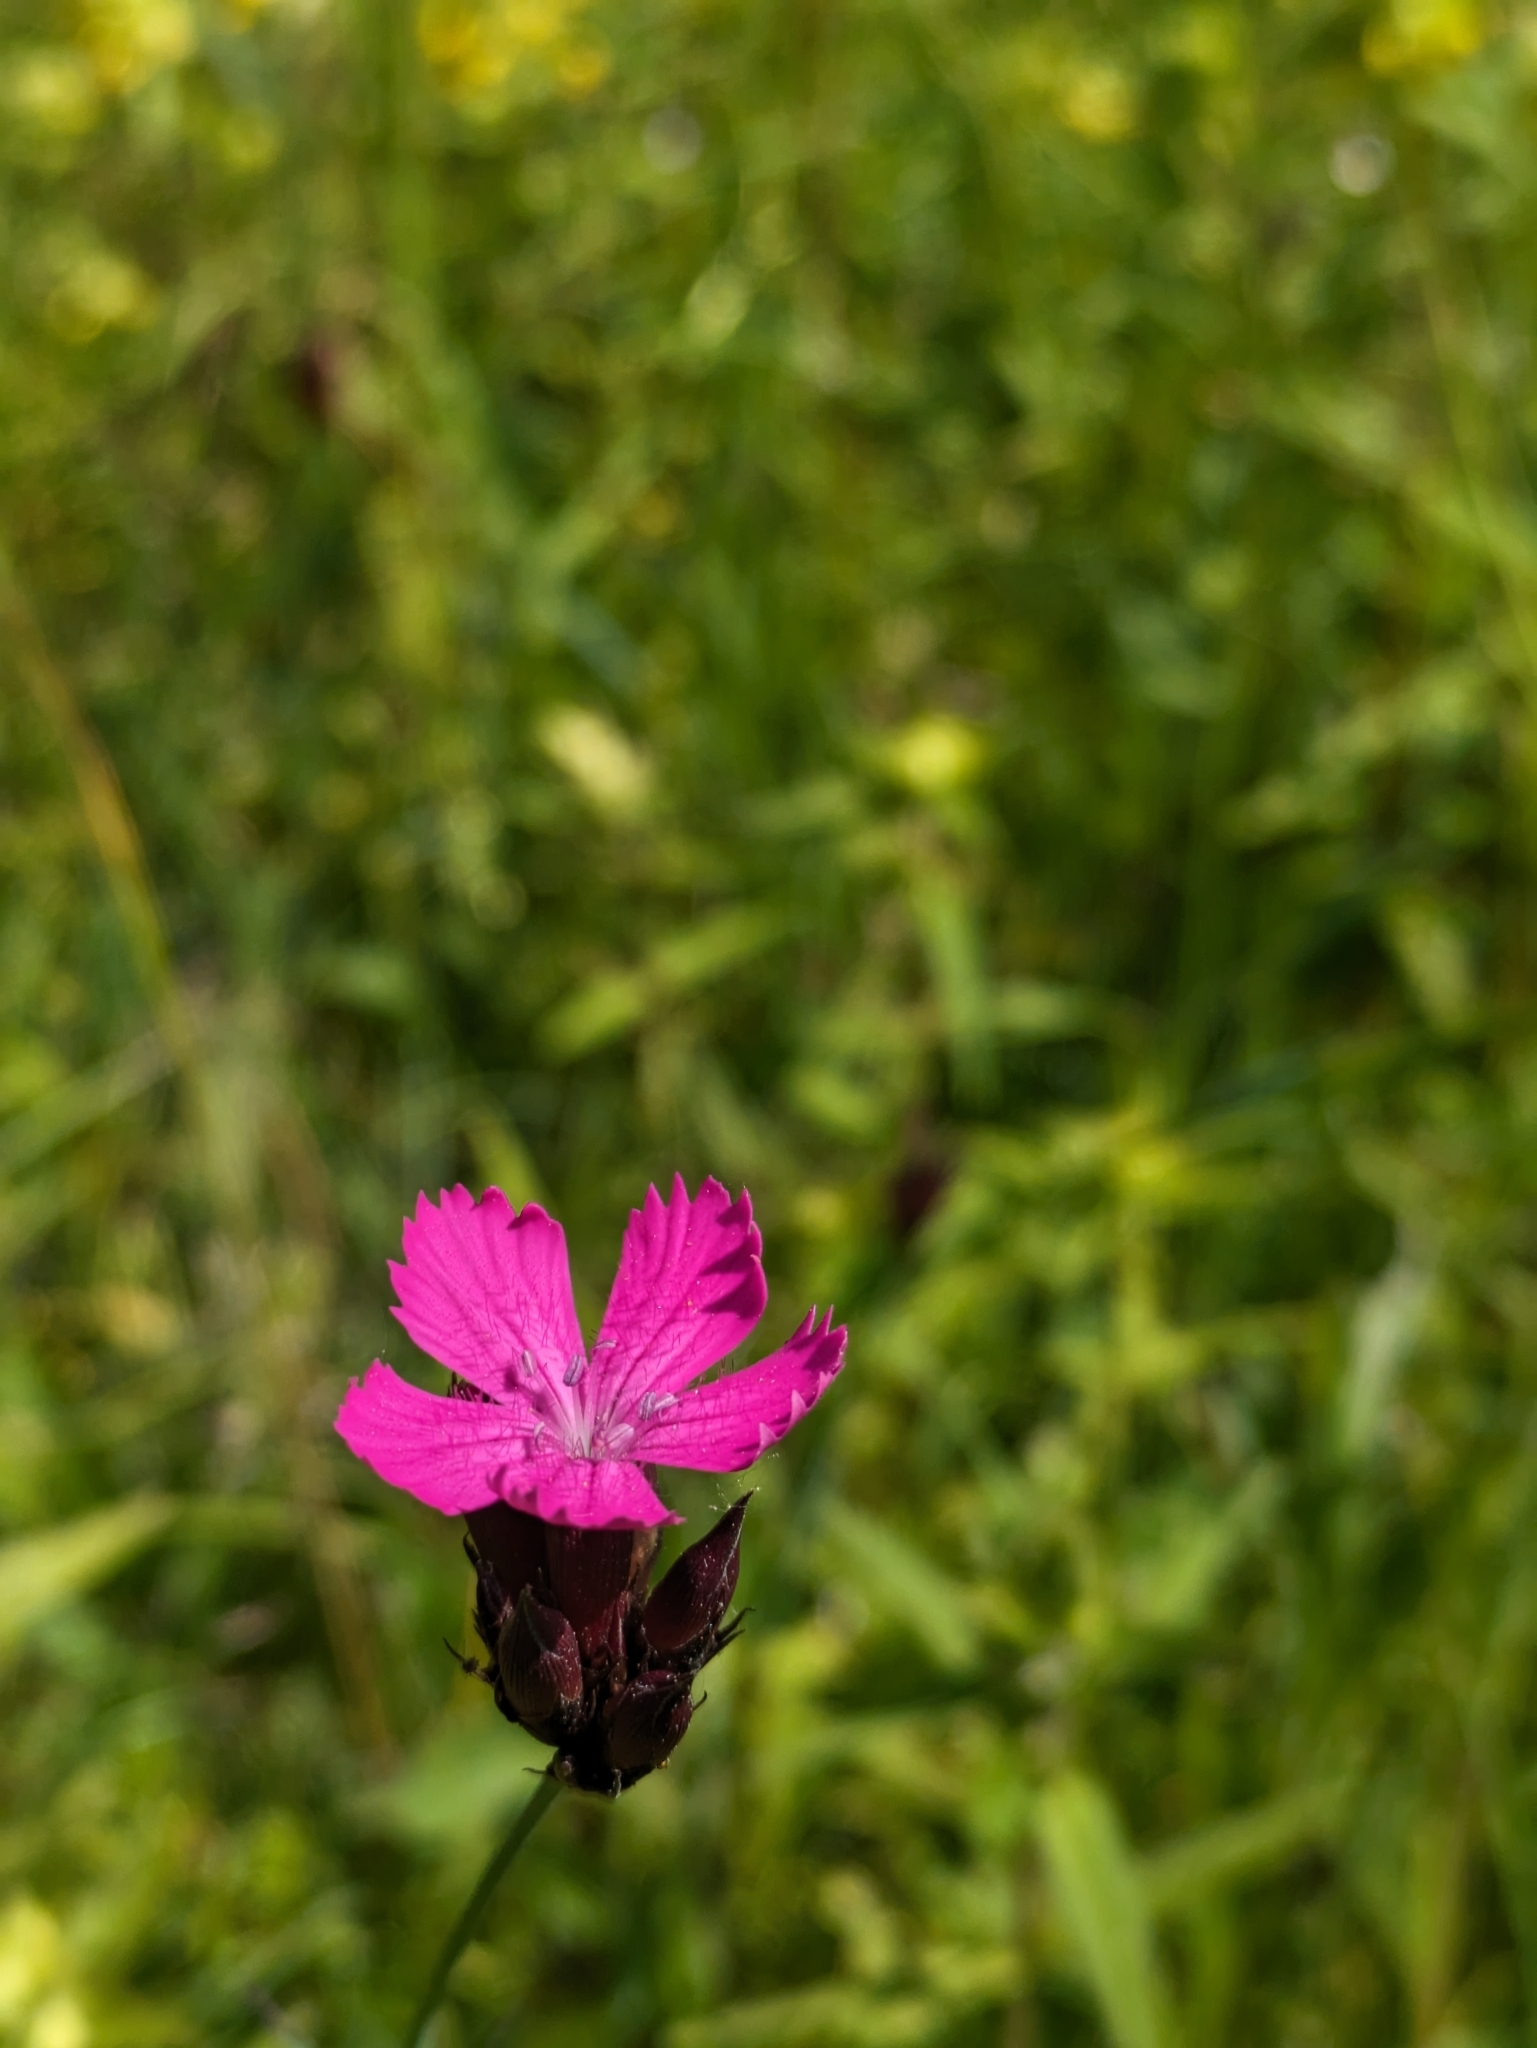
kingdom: Plantae
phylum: Tracheophyta
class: Magnoliopsida
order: Caryophyllales
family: Caryophyllaceae
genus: Dianthus
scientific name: Dianthus carthusianorum
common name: Carthusian pink
